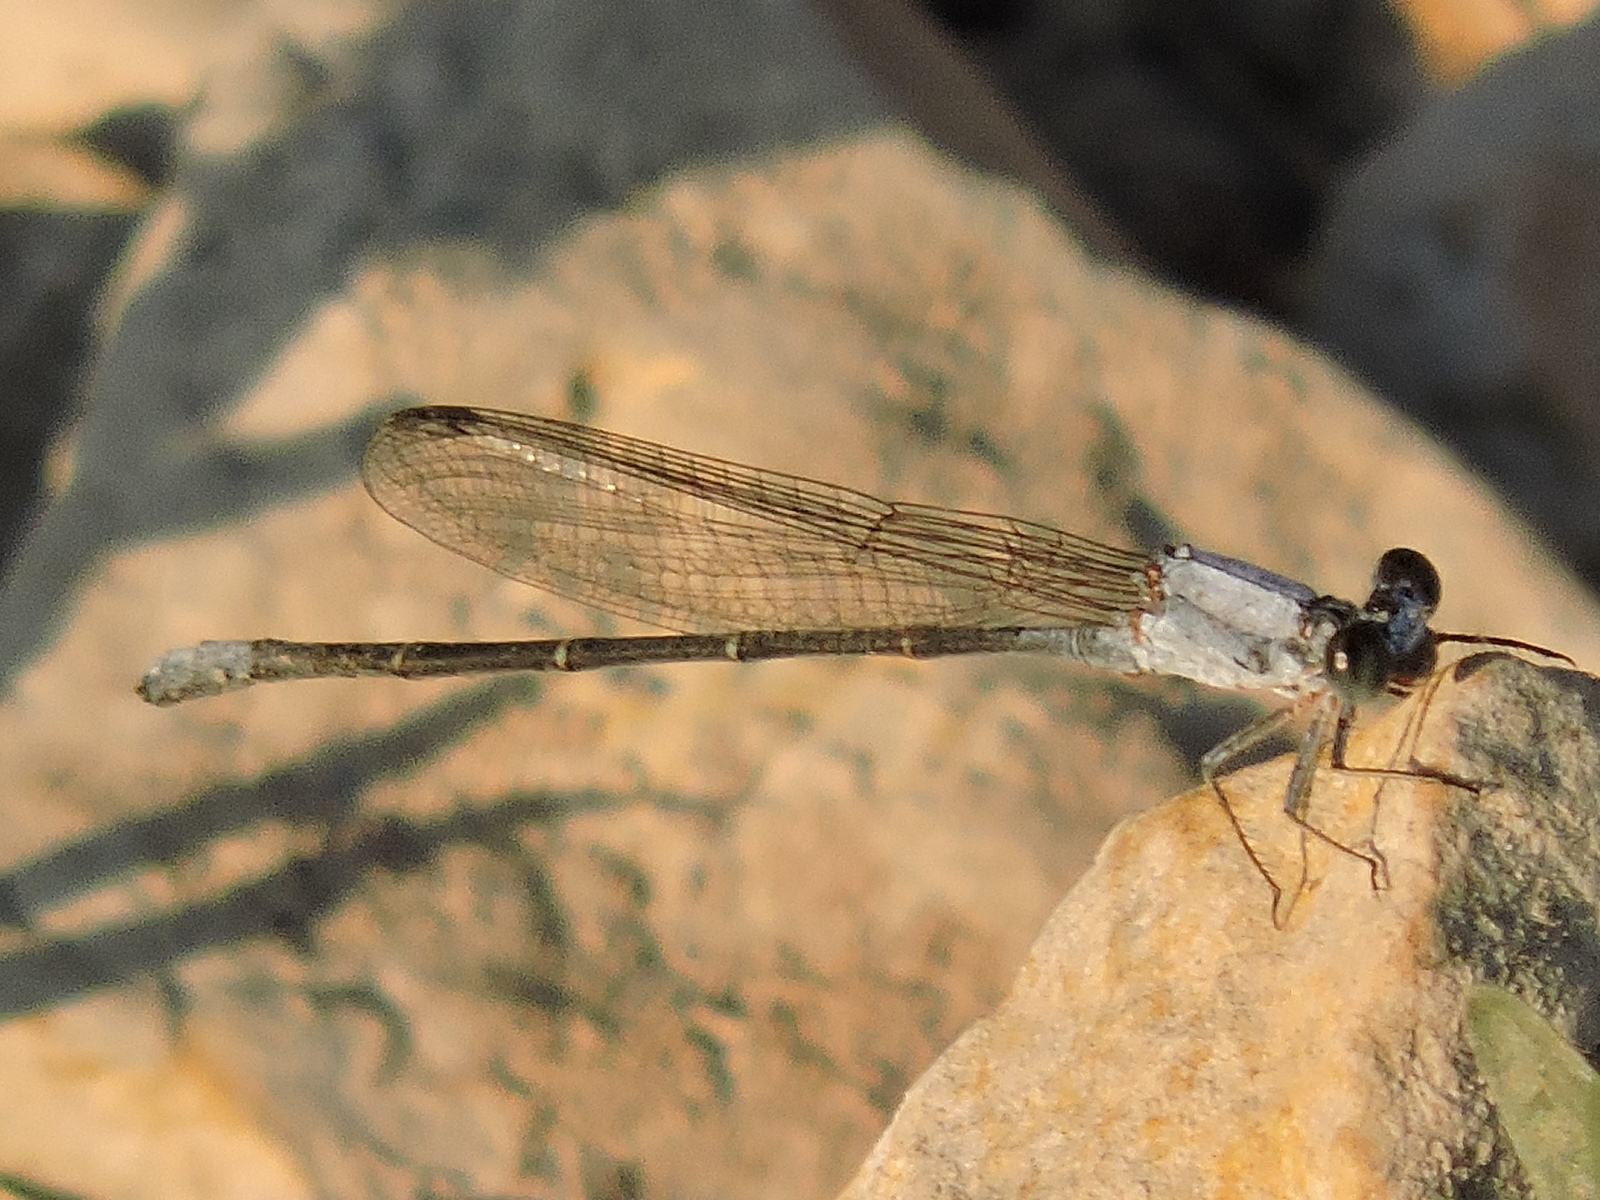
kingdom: Animalia
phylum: Arthropoda
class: Insecta
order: Odonata
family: Coenagrionidae
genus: Argia
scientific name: Argia moesta
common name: Powdered dancer
